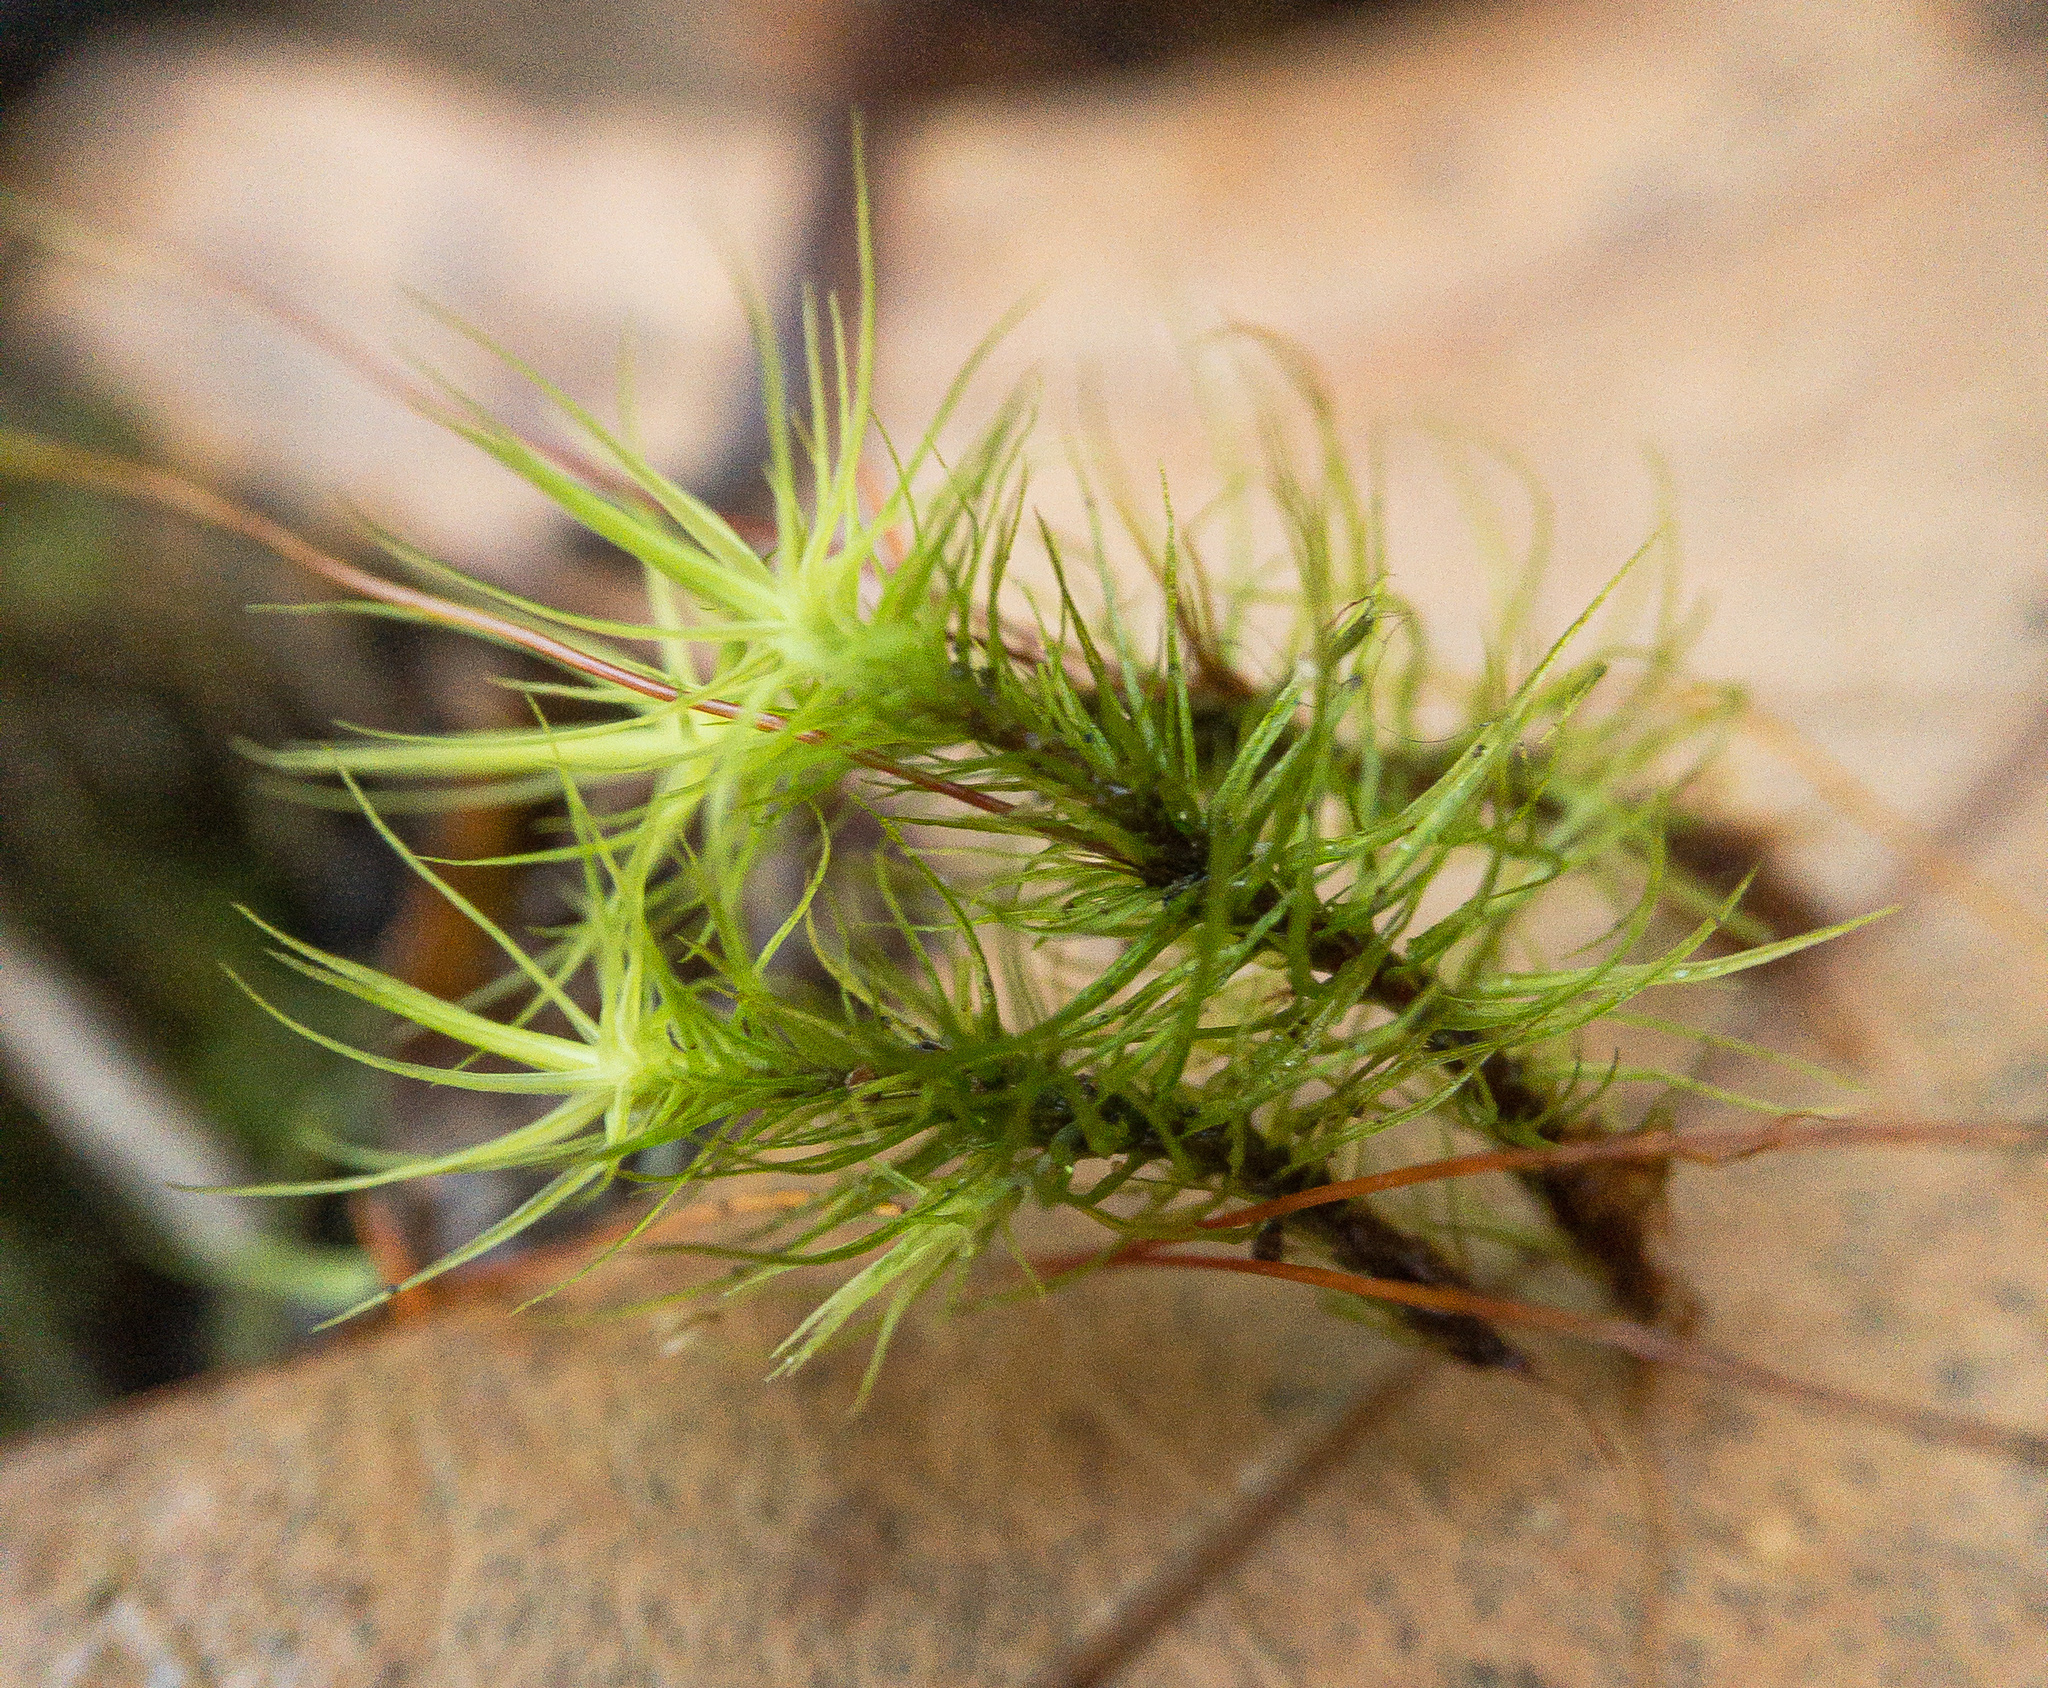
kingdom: Plantae
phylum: Bryophyta
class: Bryopsida
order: Bartramiales
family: Bartramiaceae
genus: Bartramia
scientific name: Bartramia ithyphylla
